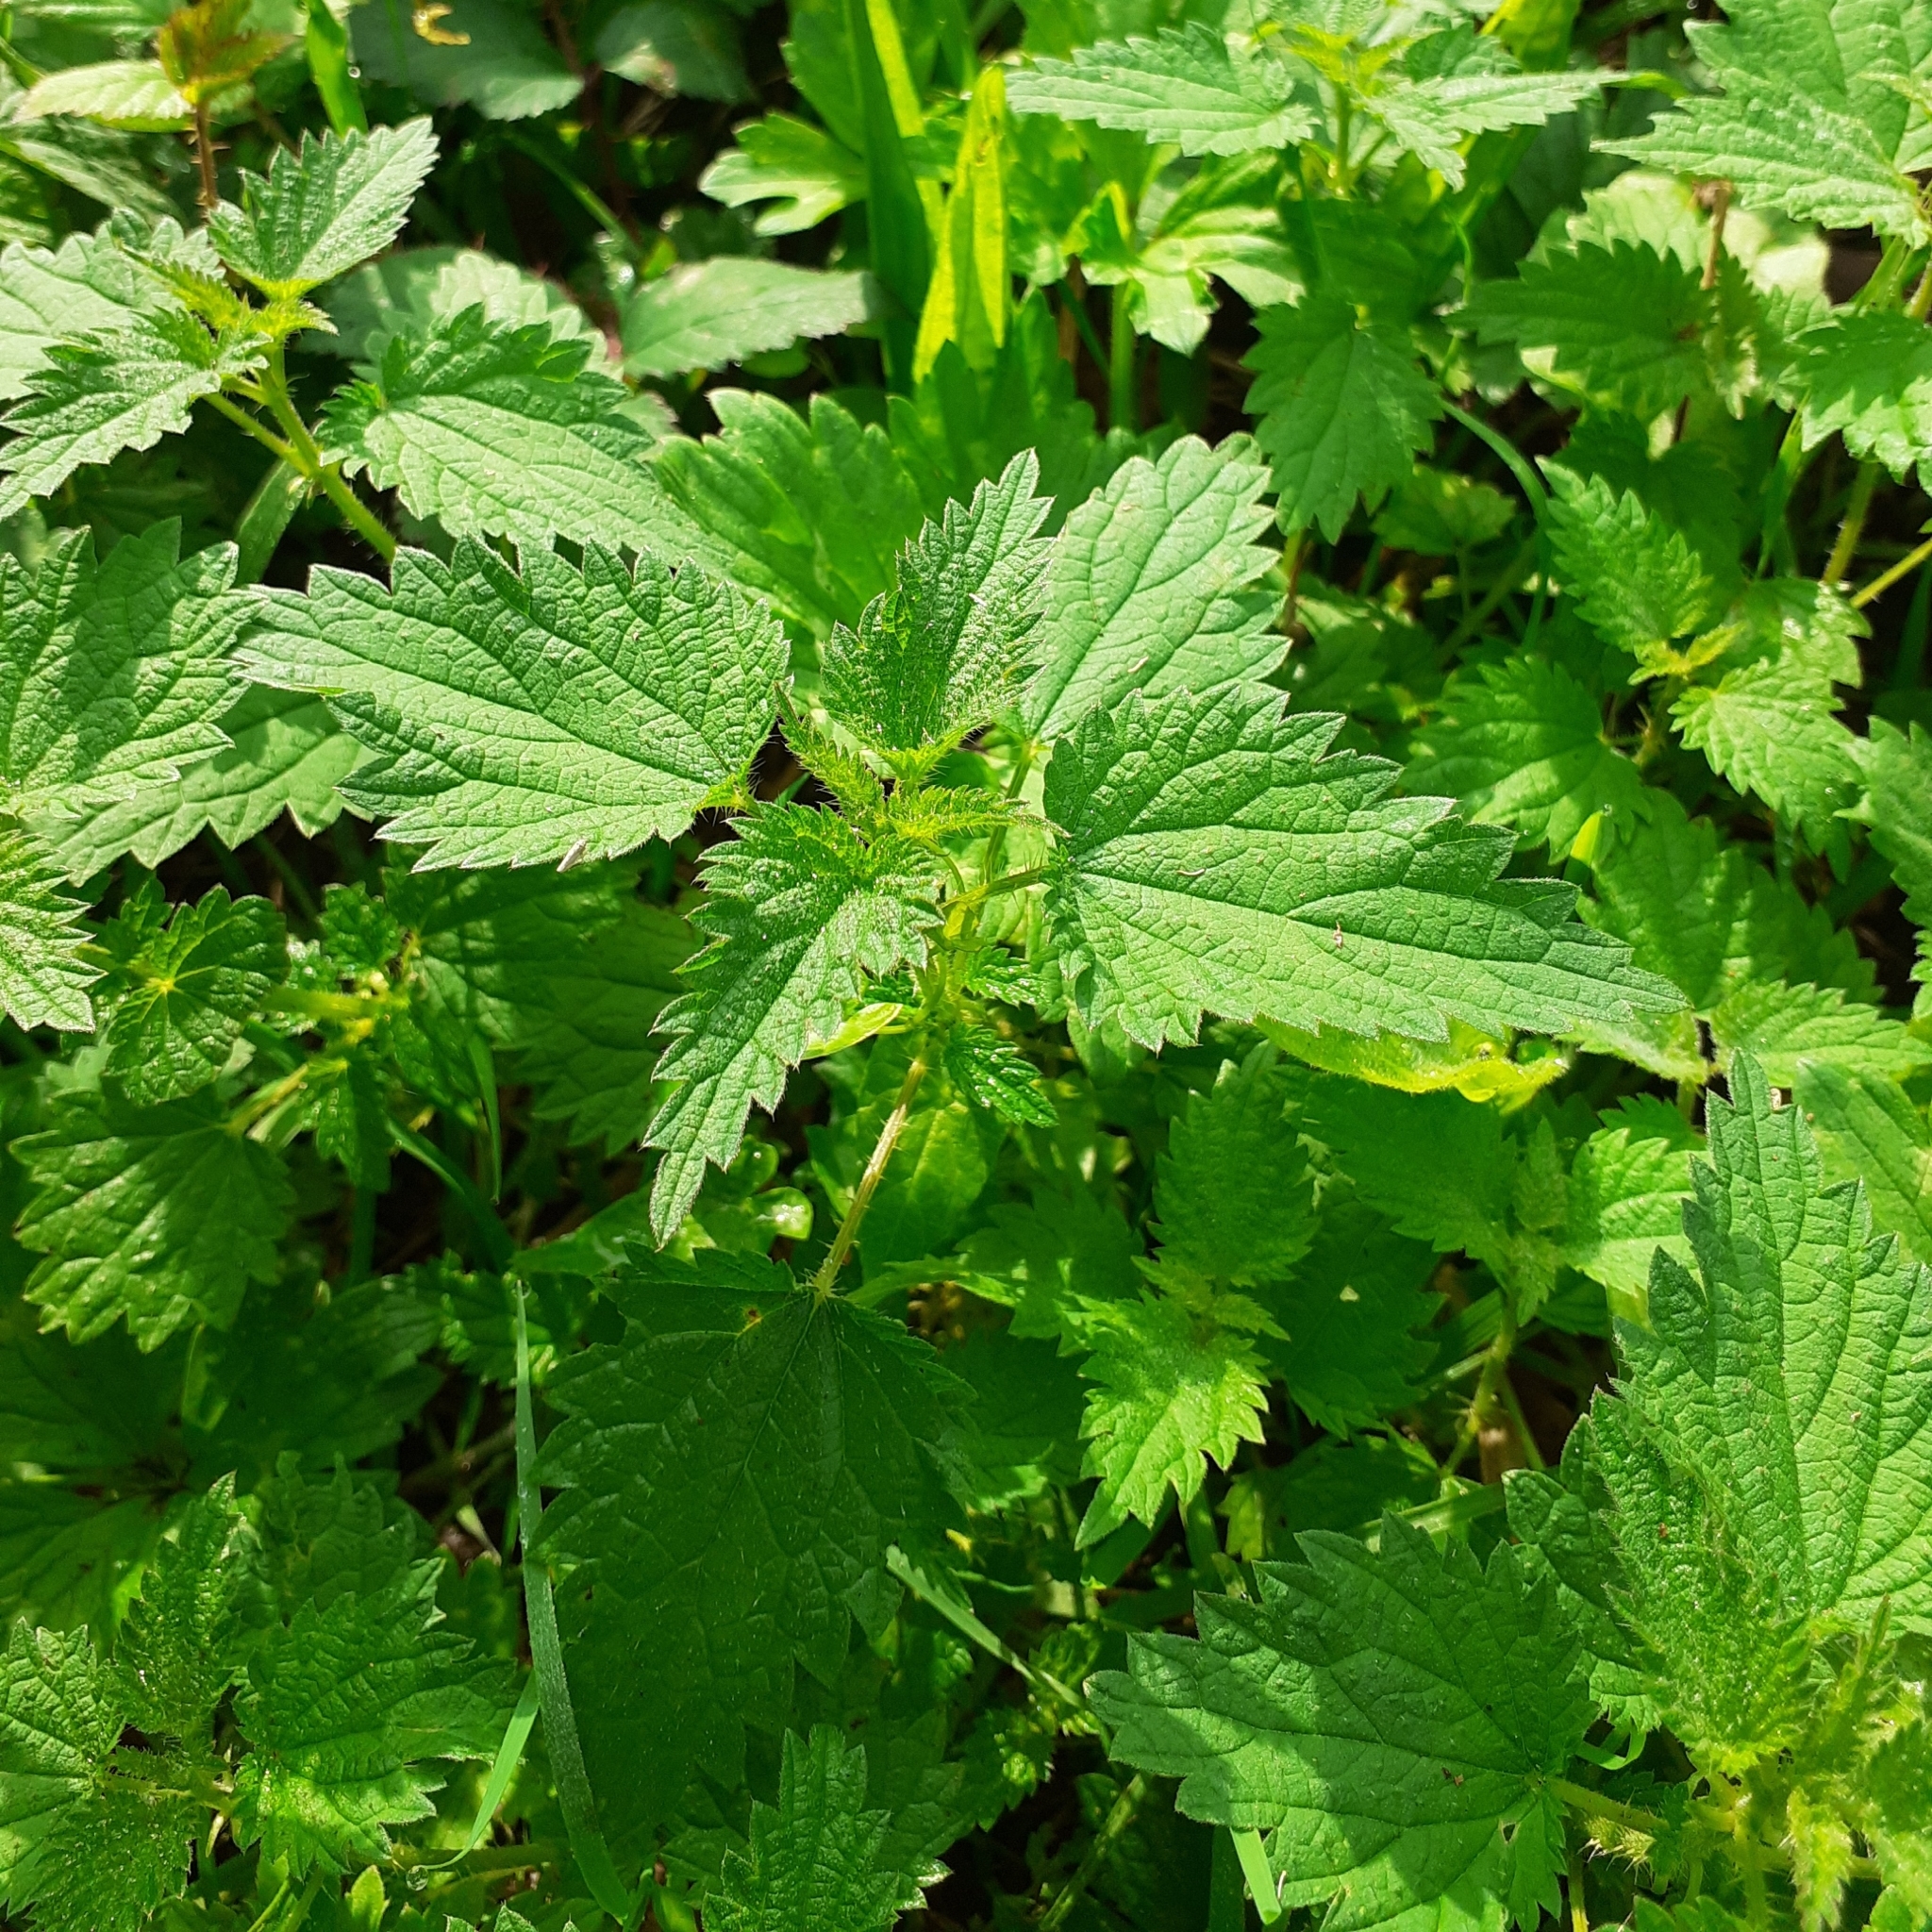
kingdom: Plantae
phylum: Tracheophyta
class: Magnoliopsida
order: Rosales
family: Urticaceae
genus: Urtica
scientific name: Urtica dioica
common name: Common nettle
